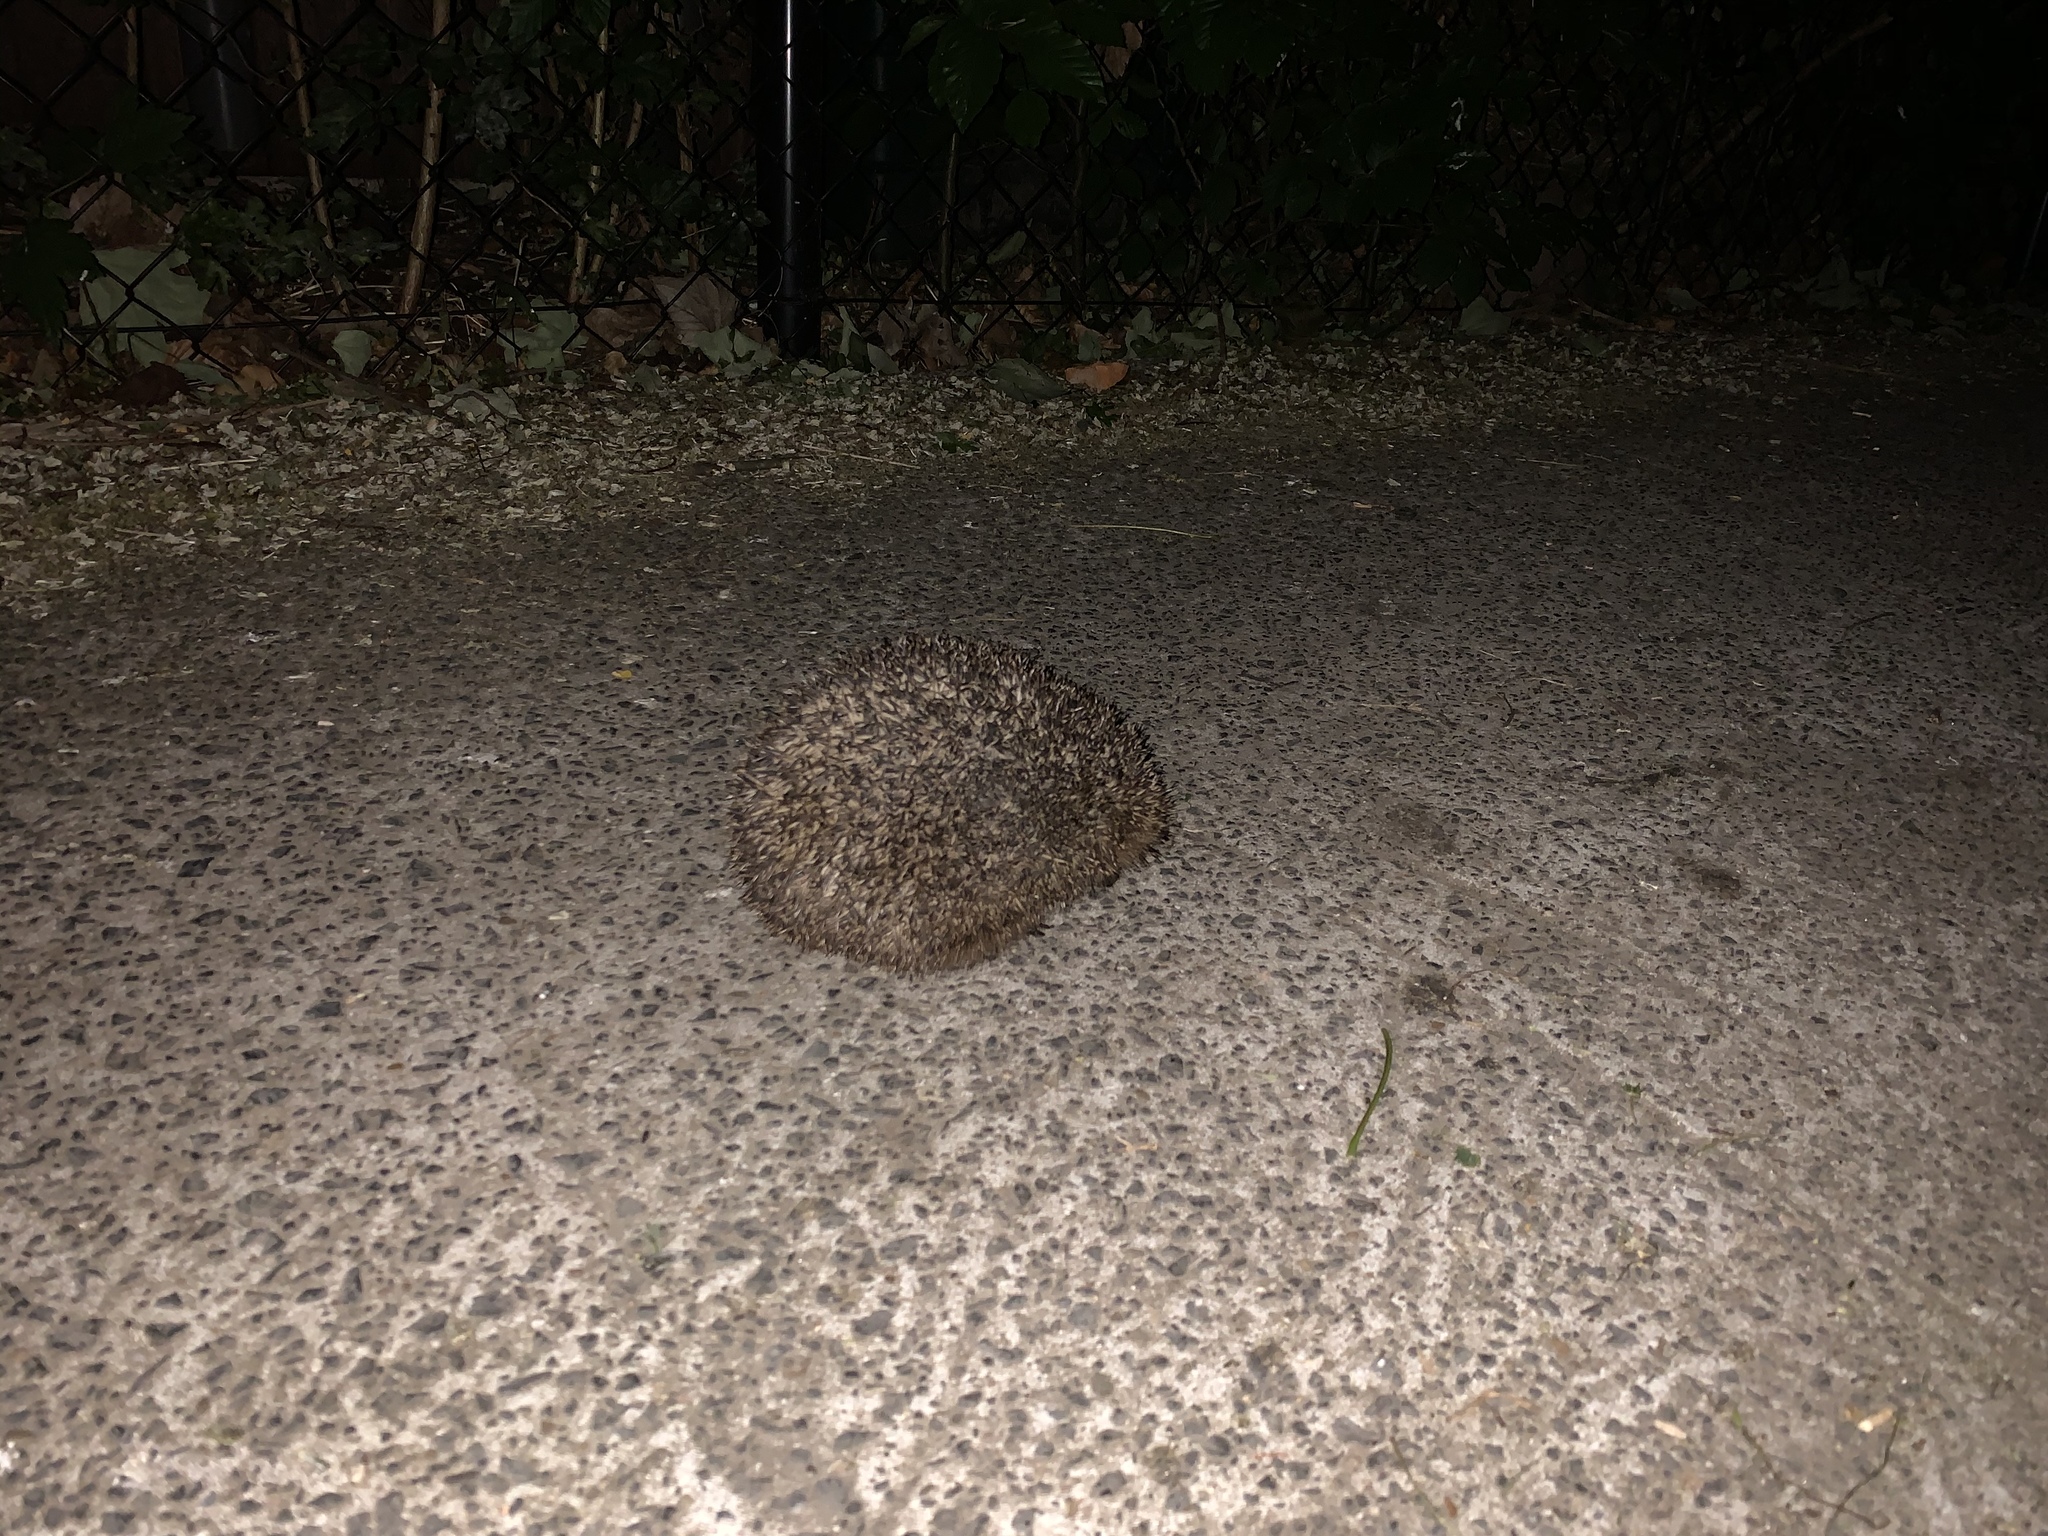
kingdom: Animalia
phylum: Chordata
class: Mammalia
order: Erinaceomorpha
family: Erinaceidae
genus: Erinaceus
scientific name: Erinaceus europaeus
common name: West european hedgehog
